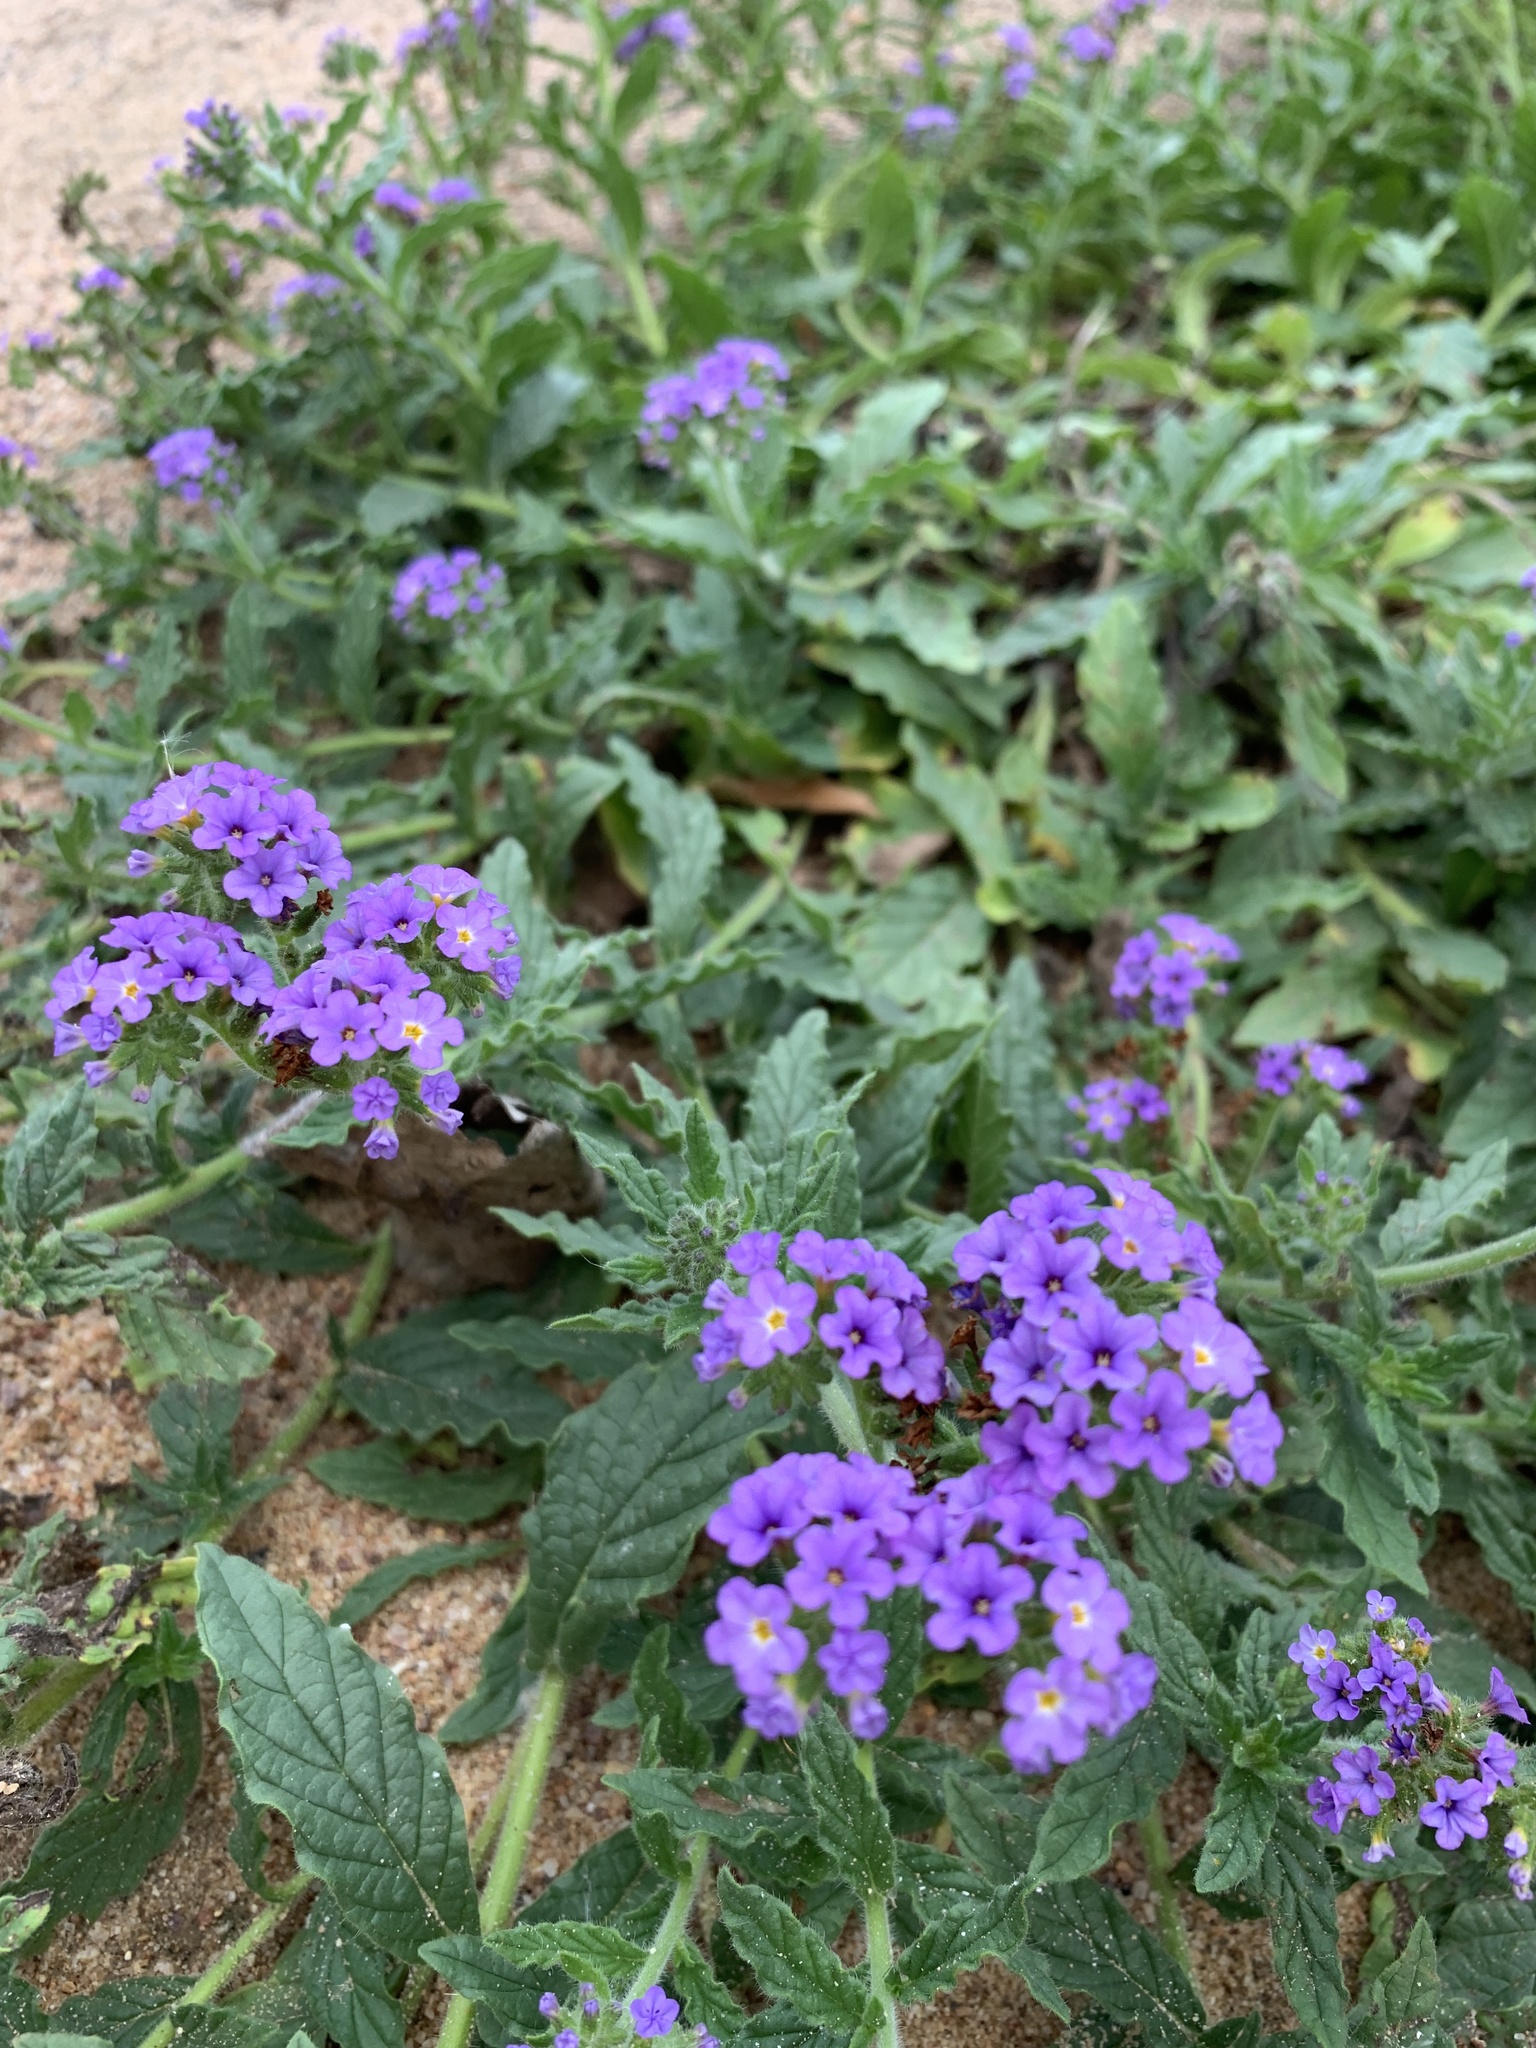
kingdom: Plantae
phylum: Tracheophyta
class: Magnoliopsida
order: Boraginales
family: Heliotropiaceae
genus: Heliotropium
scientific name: Heliotropium amplexicaule
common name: Clasping heliotrope
